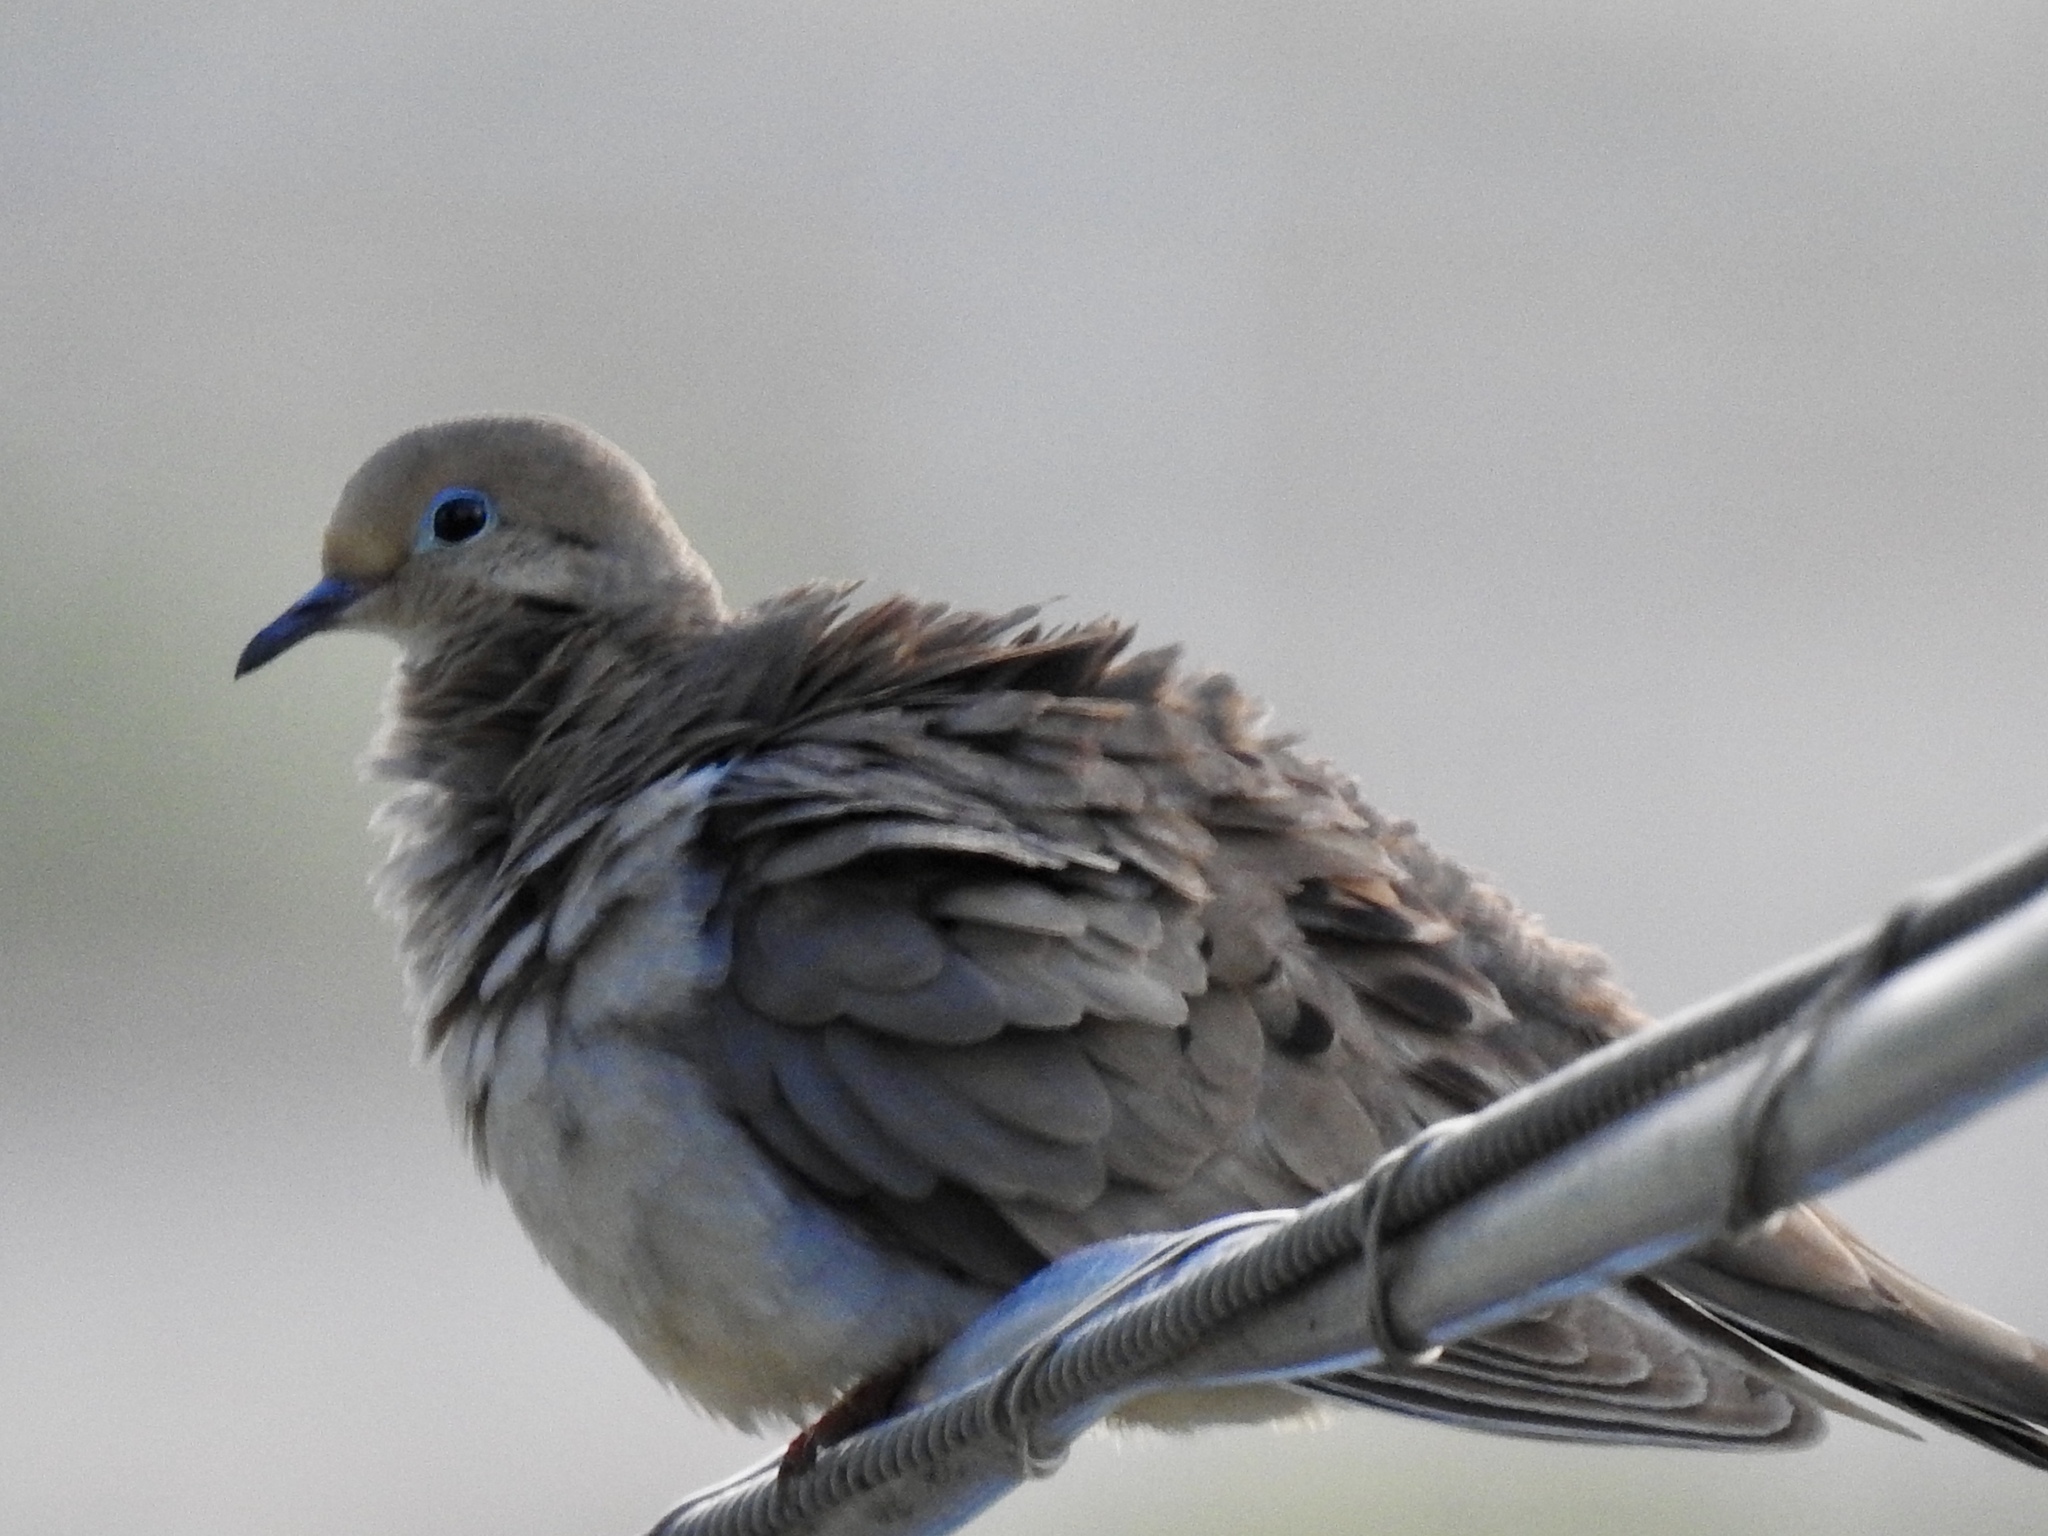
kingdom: Animalia
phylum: Chordata
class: Aves
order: Columbiformes
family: Columbidae
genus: Zenaida
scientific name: Zenaida macroura
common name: Mourning dove
